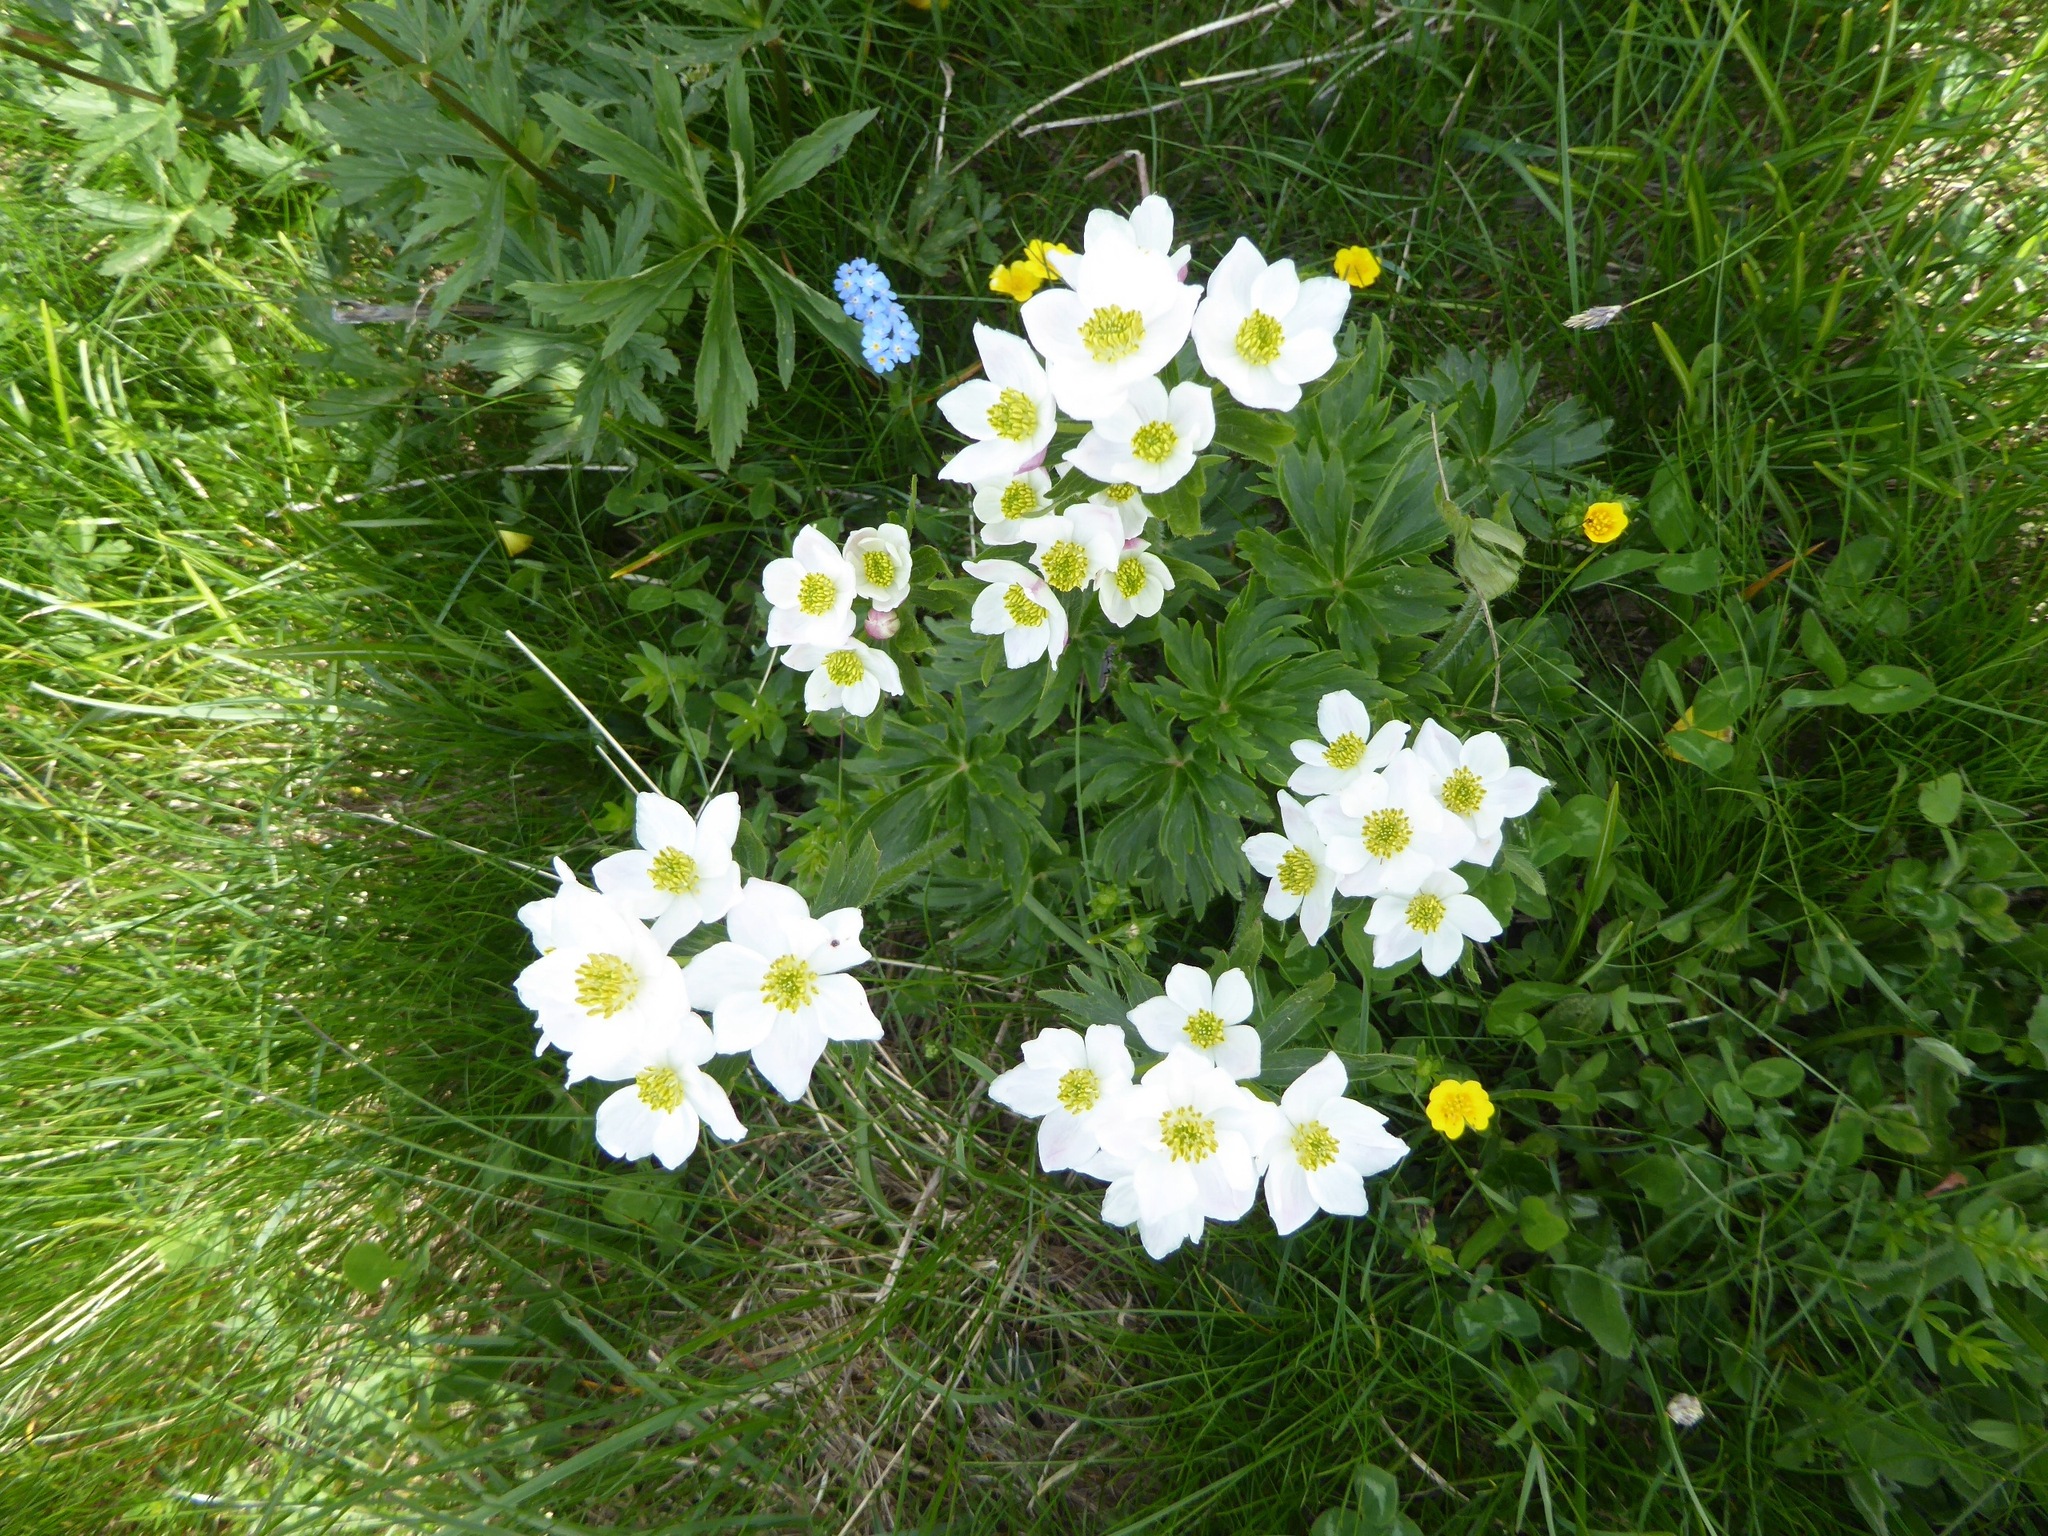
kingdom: Plantae
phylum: Tracheophyta
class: Magnoliopsida
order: Ranunculales
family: Ranunculaceae
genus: Anemonastrum
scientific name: Anemonastrum narcissiflorum
